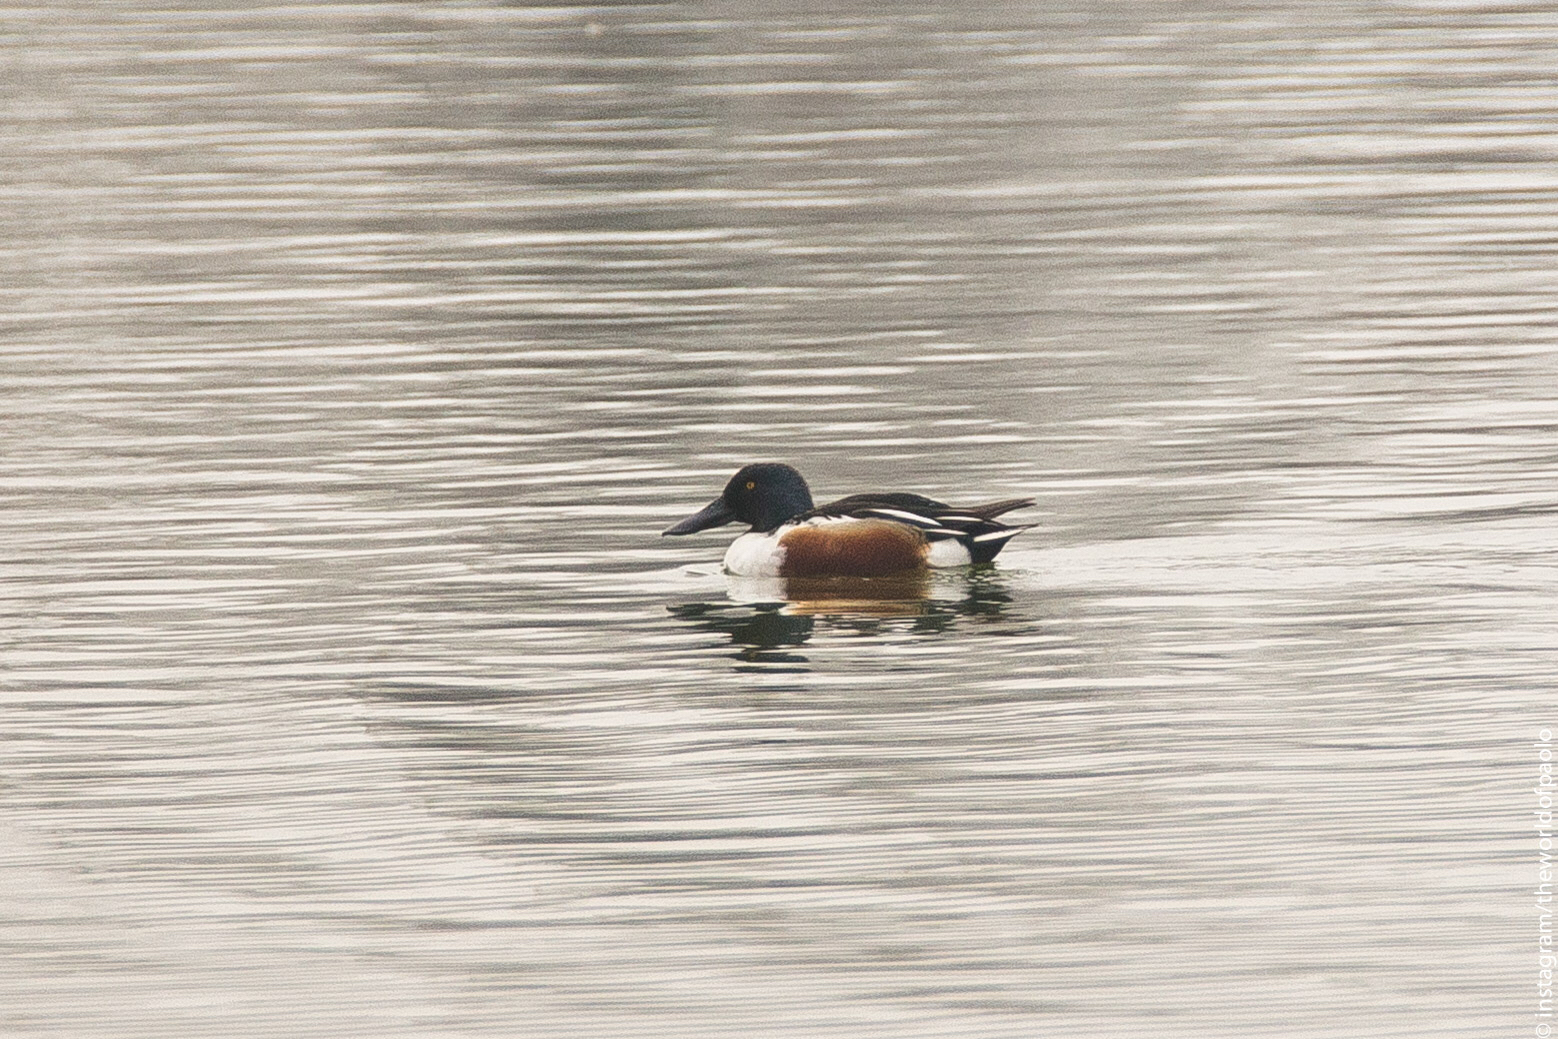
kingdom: Animalia
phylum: Chordata
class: Aves
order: Anseriformes
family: Anatidae
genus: Spatula
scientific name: Spatula clypeata
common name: Northern shoveler
